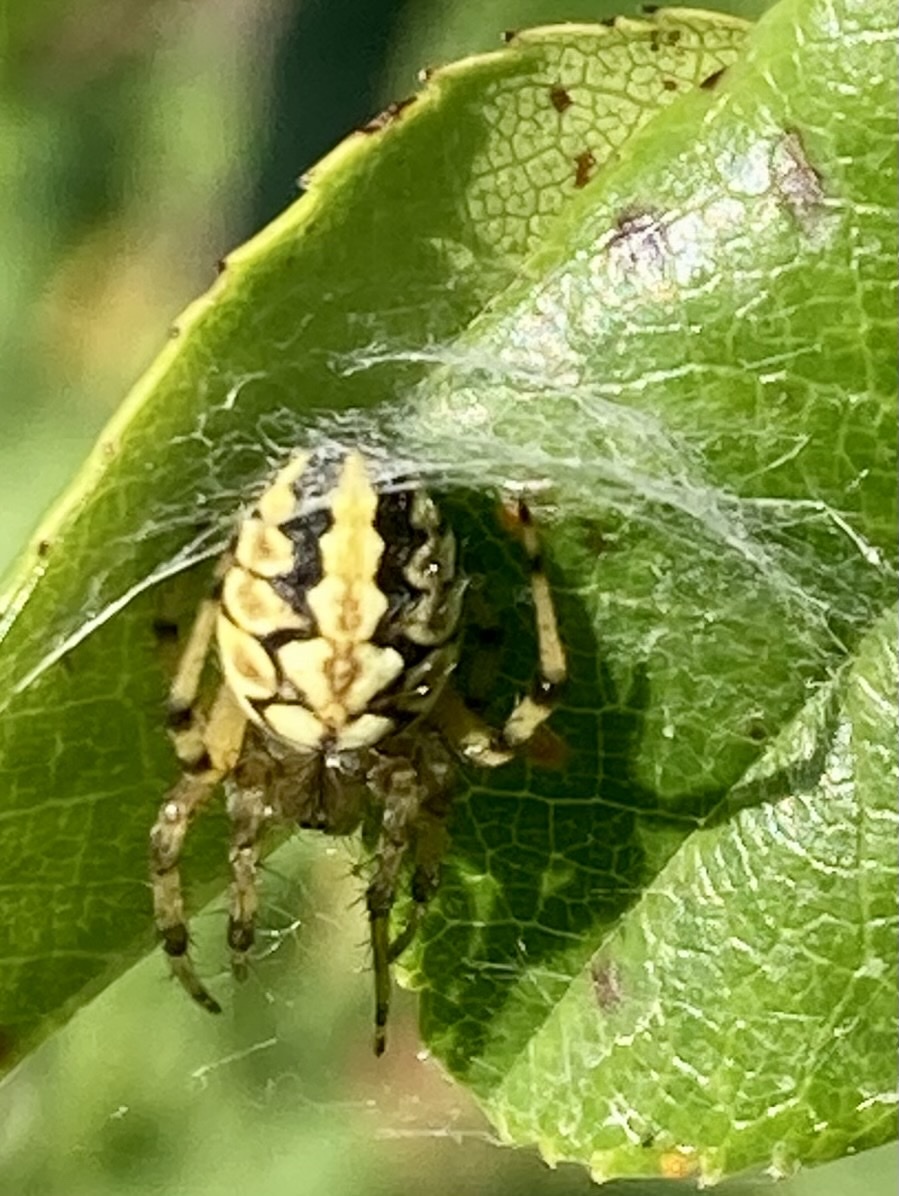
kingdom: Animalia
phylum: Arthropoda
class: Arachnida
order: Araneae
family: Araneidae
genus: Neoscona
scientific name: Neoscona adianta
